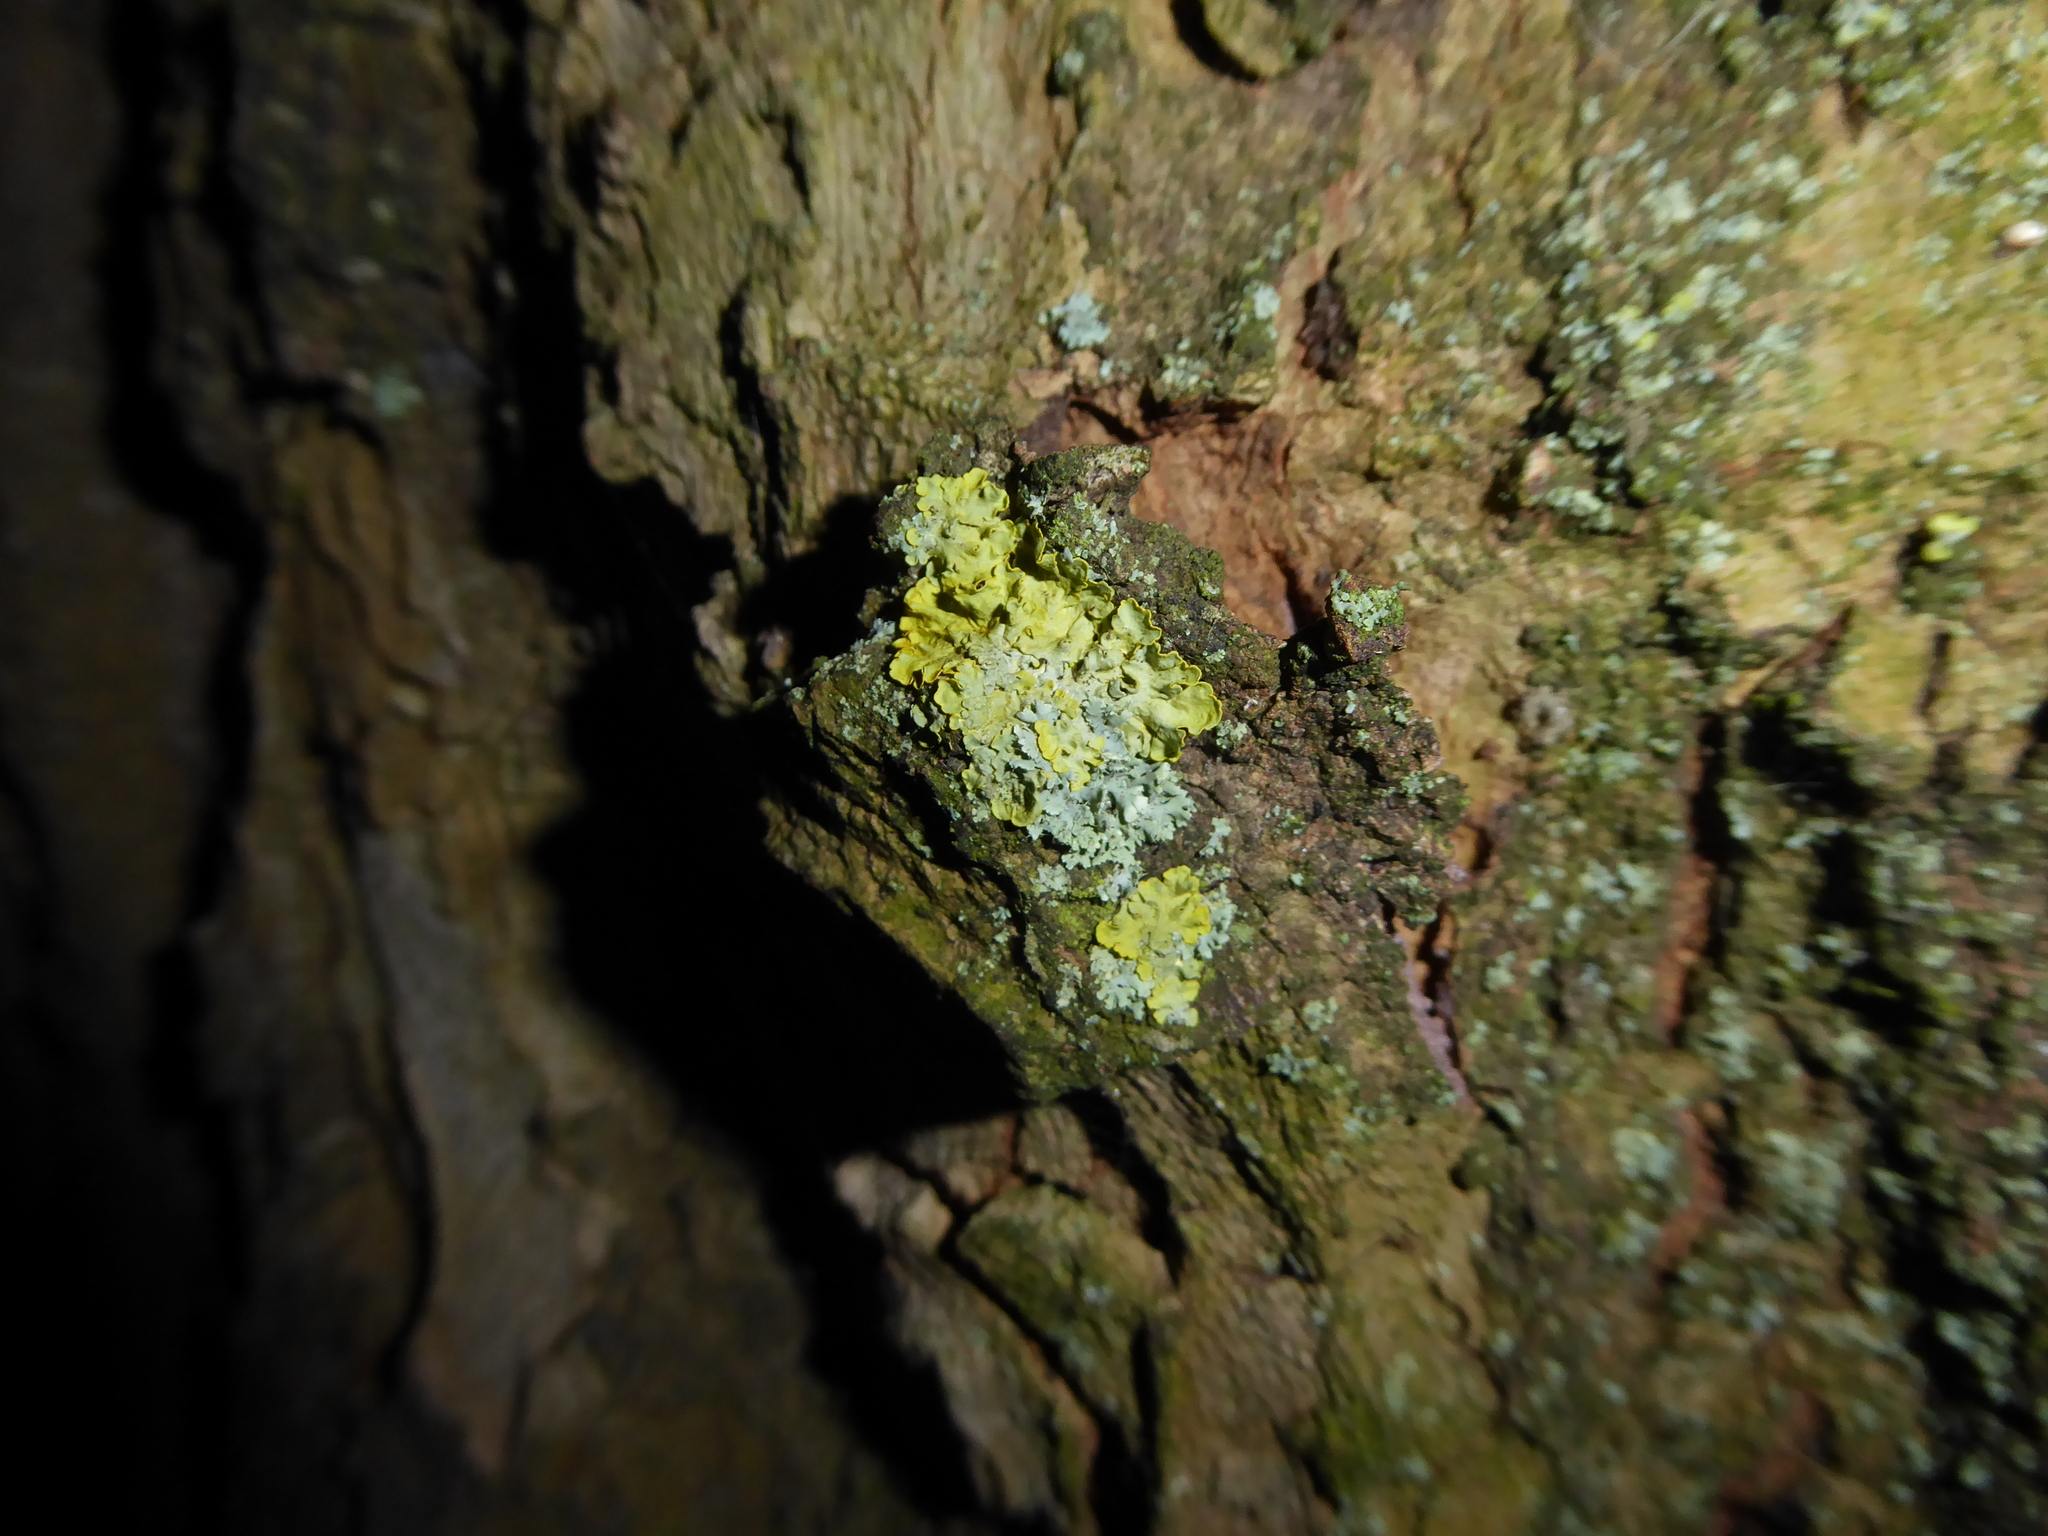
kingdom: Fungi
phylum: Ascomycota
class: Lecanoromycetes
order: Teloschistales
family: Teloschistaceae
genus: Xanthoria
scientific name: Xanthoria parietina
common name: Common orange lichen
